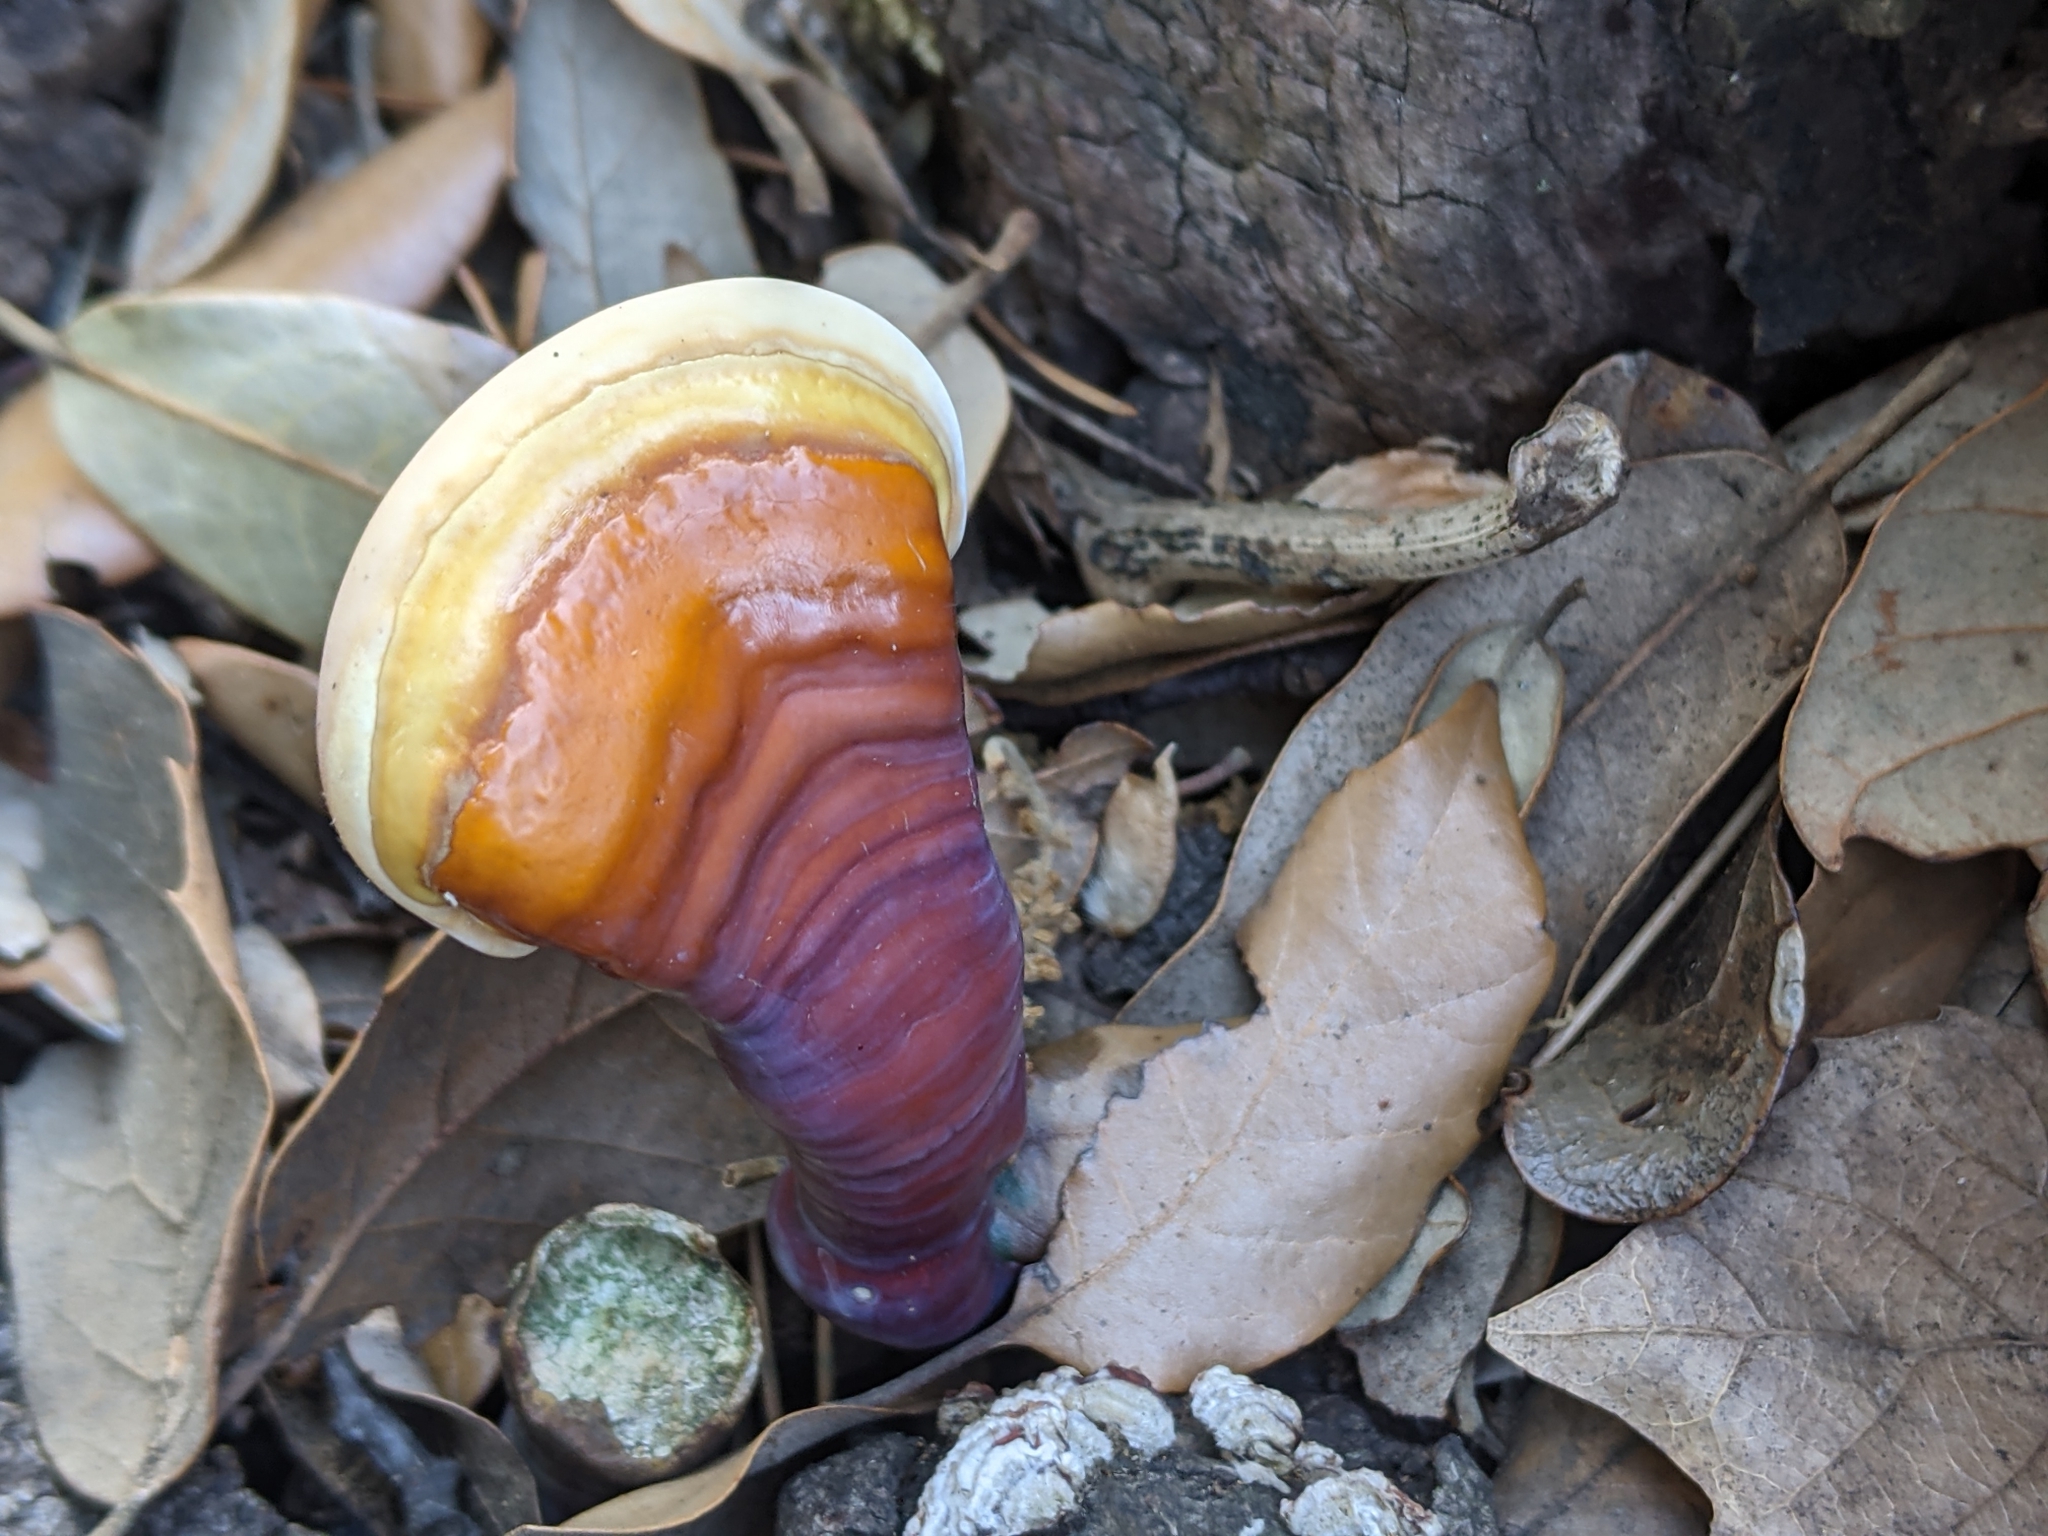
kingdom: Fungi
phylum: Basidiomycota
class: Agaricomycetes
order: Polyporales
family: Polyporaceae
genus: Ganoderma
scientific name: Ganoderma lucidum
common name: Lacquered bracket
